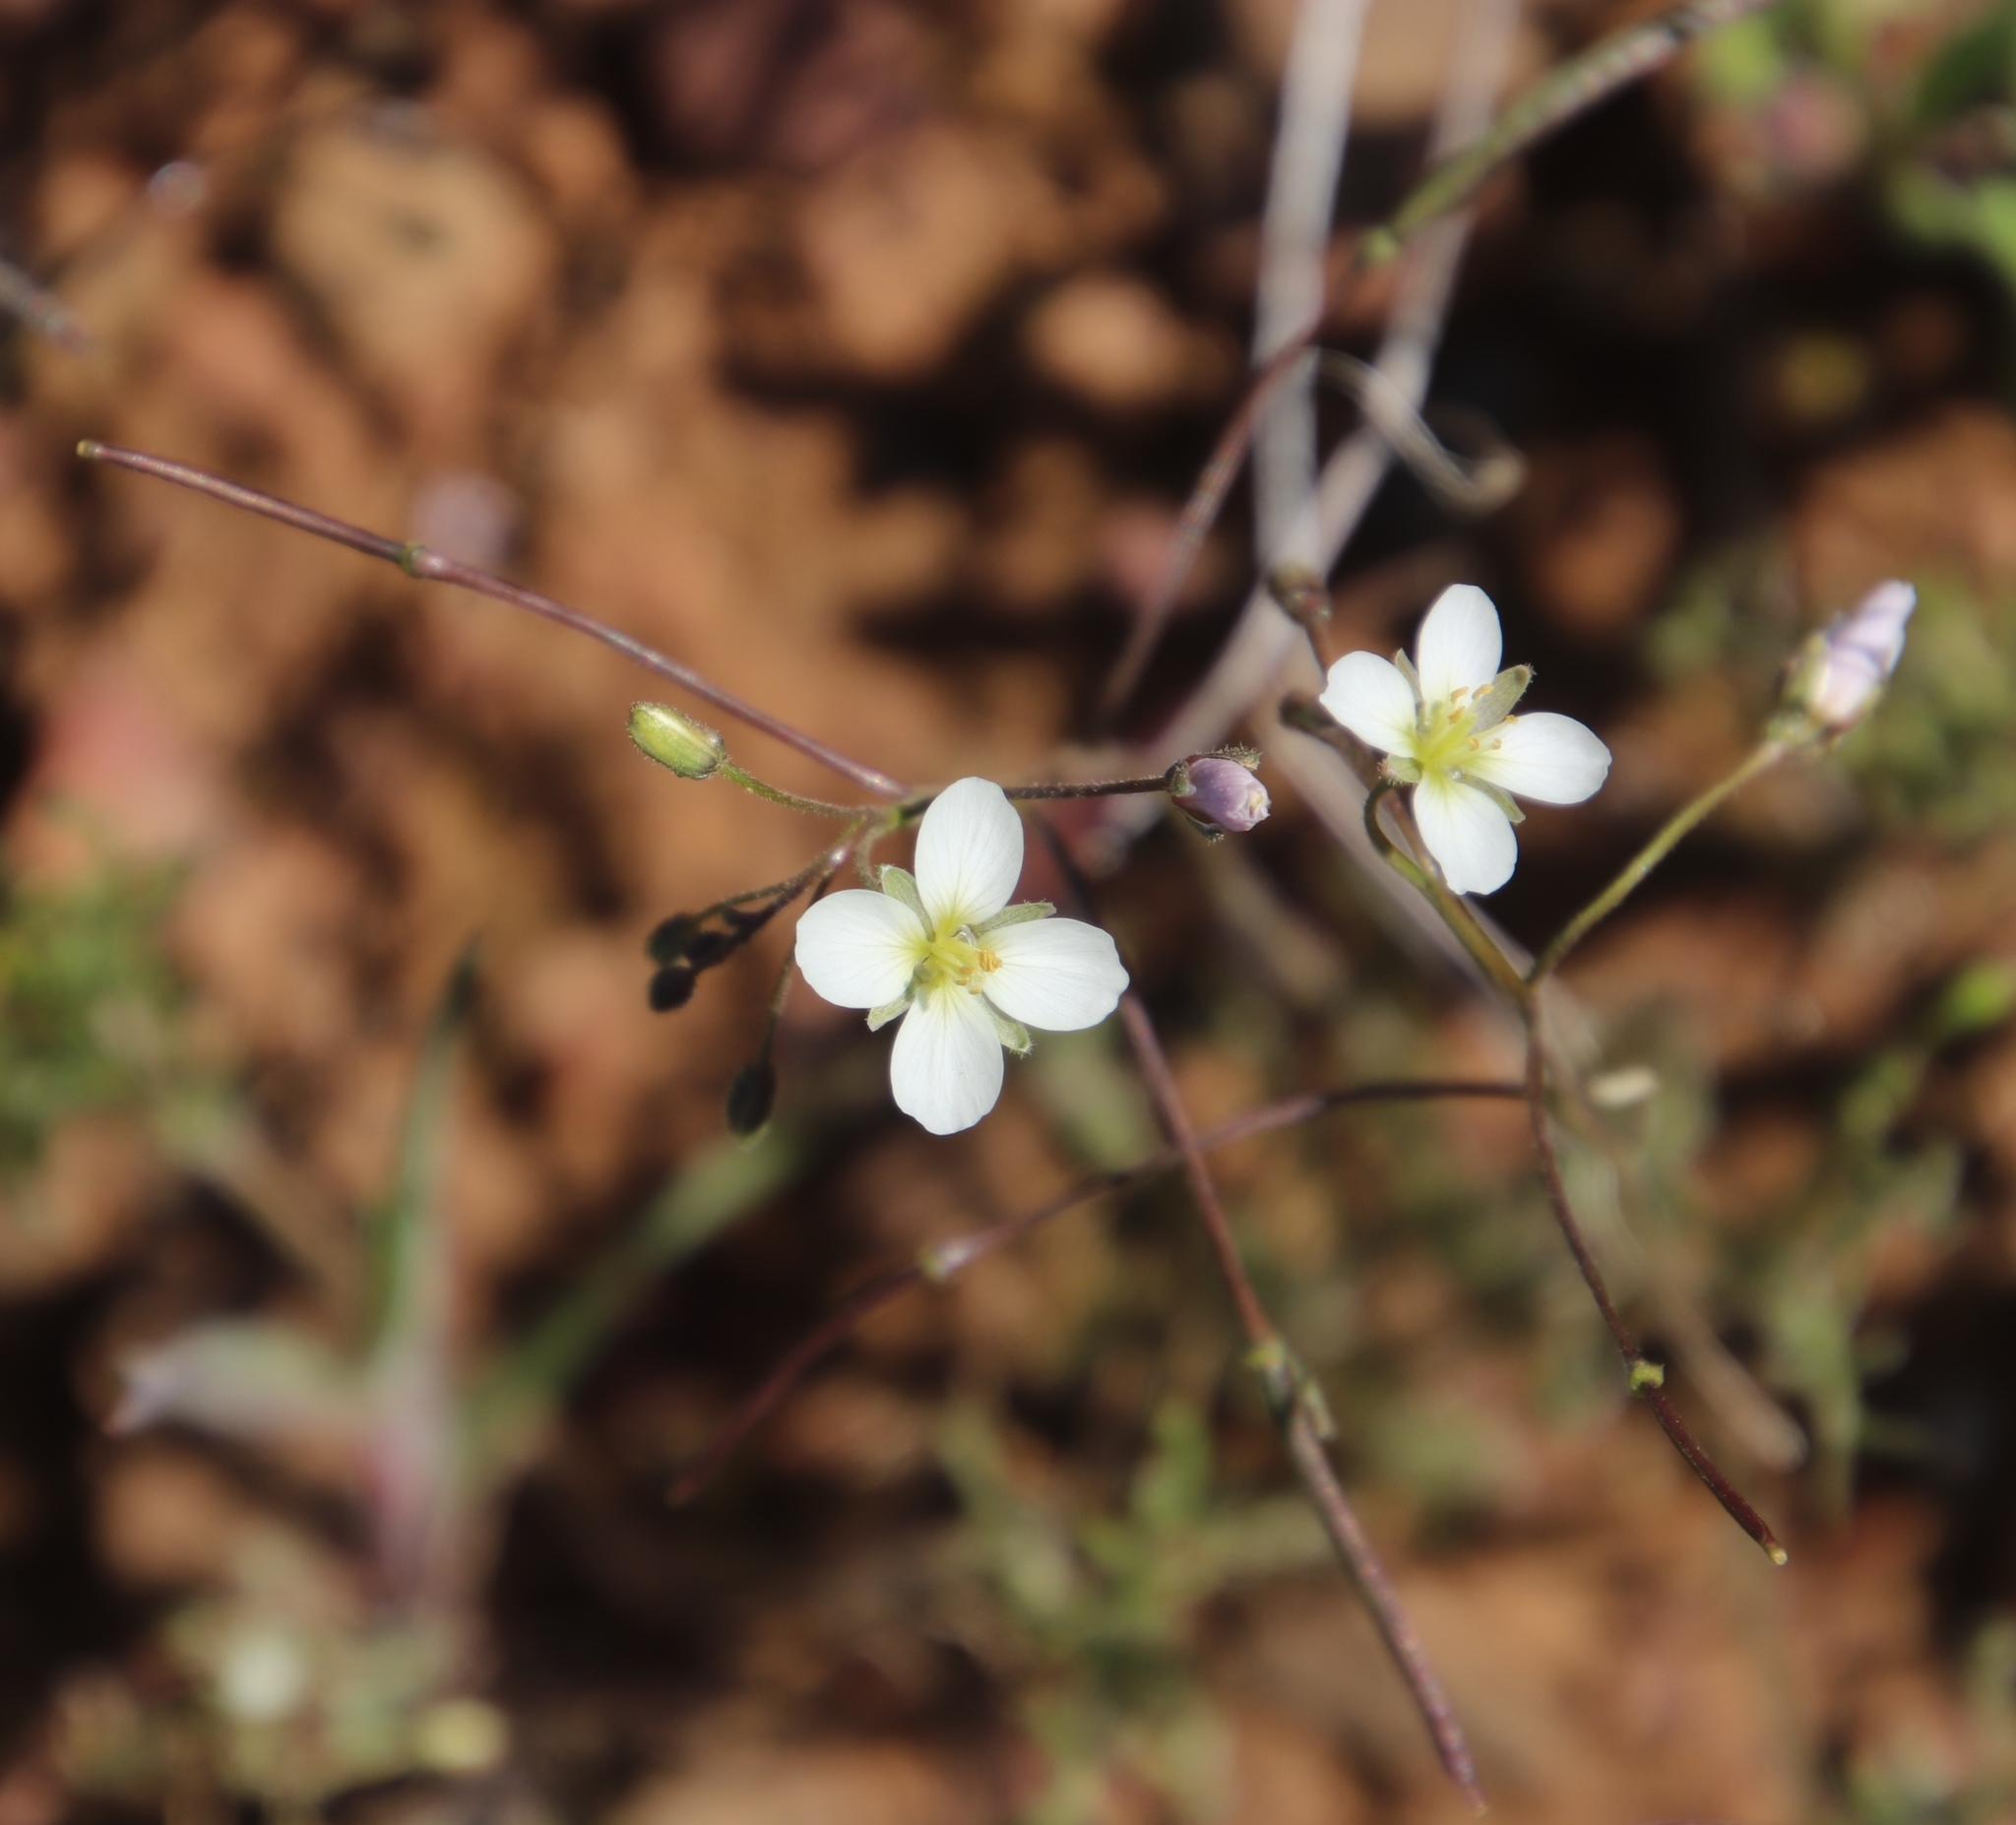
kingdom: Plantae
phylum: Tracheophyta
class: Magnoliopsida
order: Brassicales
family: Brassicaceae
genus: Heliophila
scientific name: Heliophila crithmifolia
